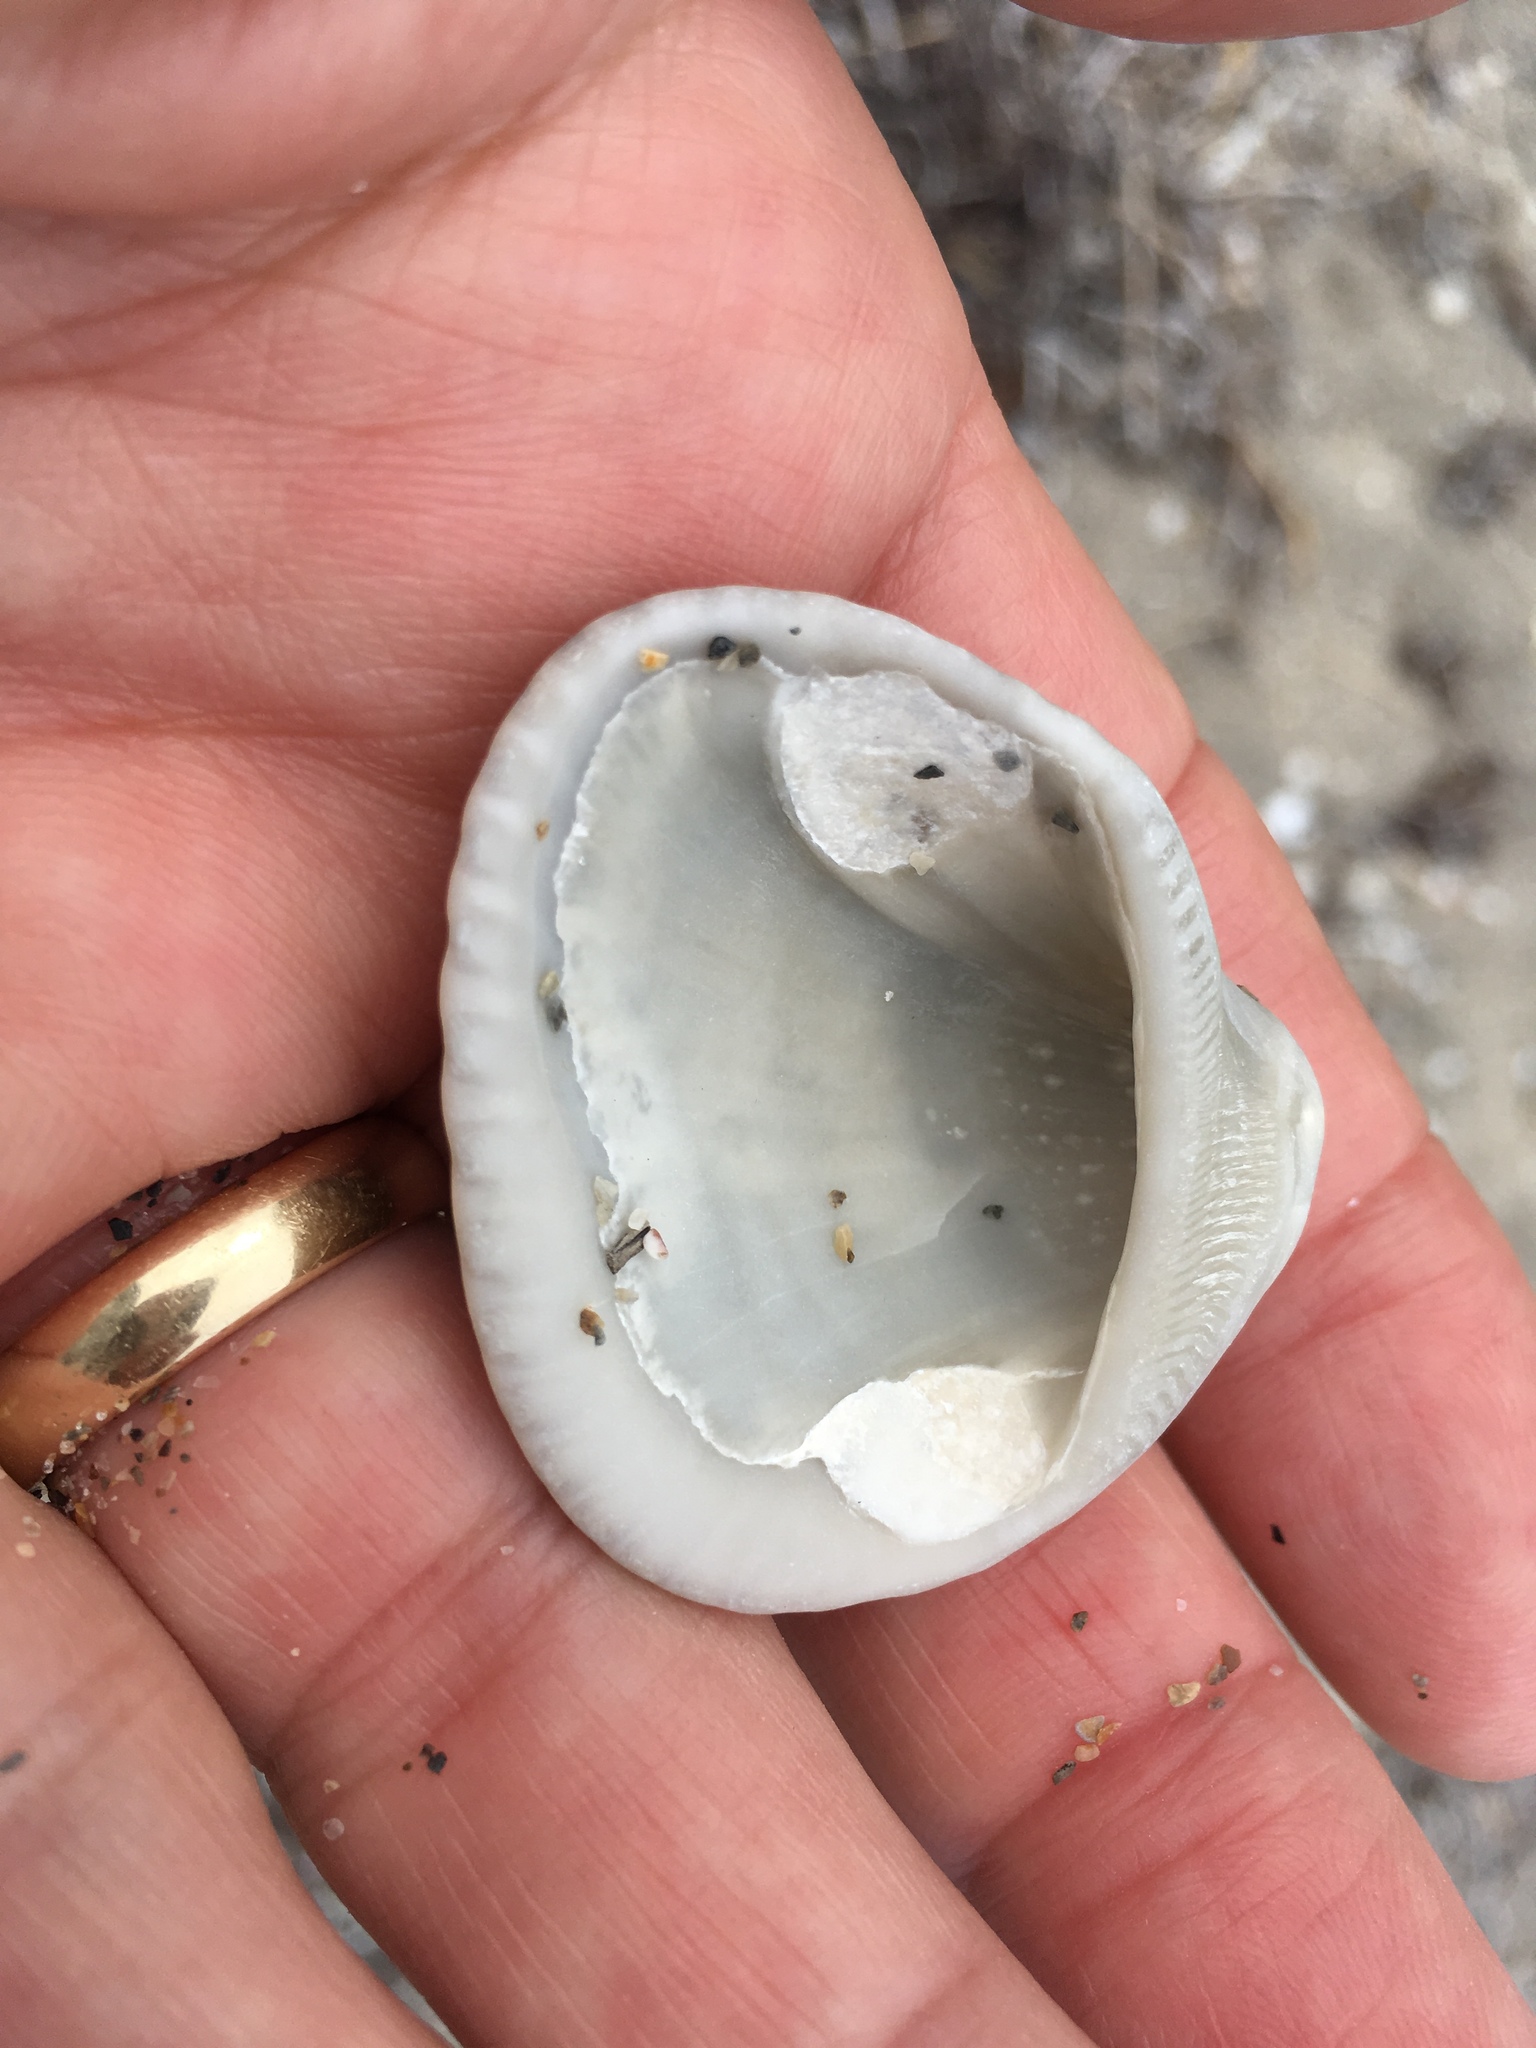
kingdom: Animalia
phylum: Mollusca
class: Bivalvia
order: Arcida
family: Noetiidae
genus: Noetia
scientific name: Noetia ponderosa
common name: Ponderous ark
